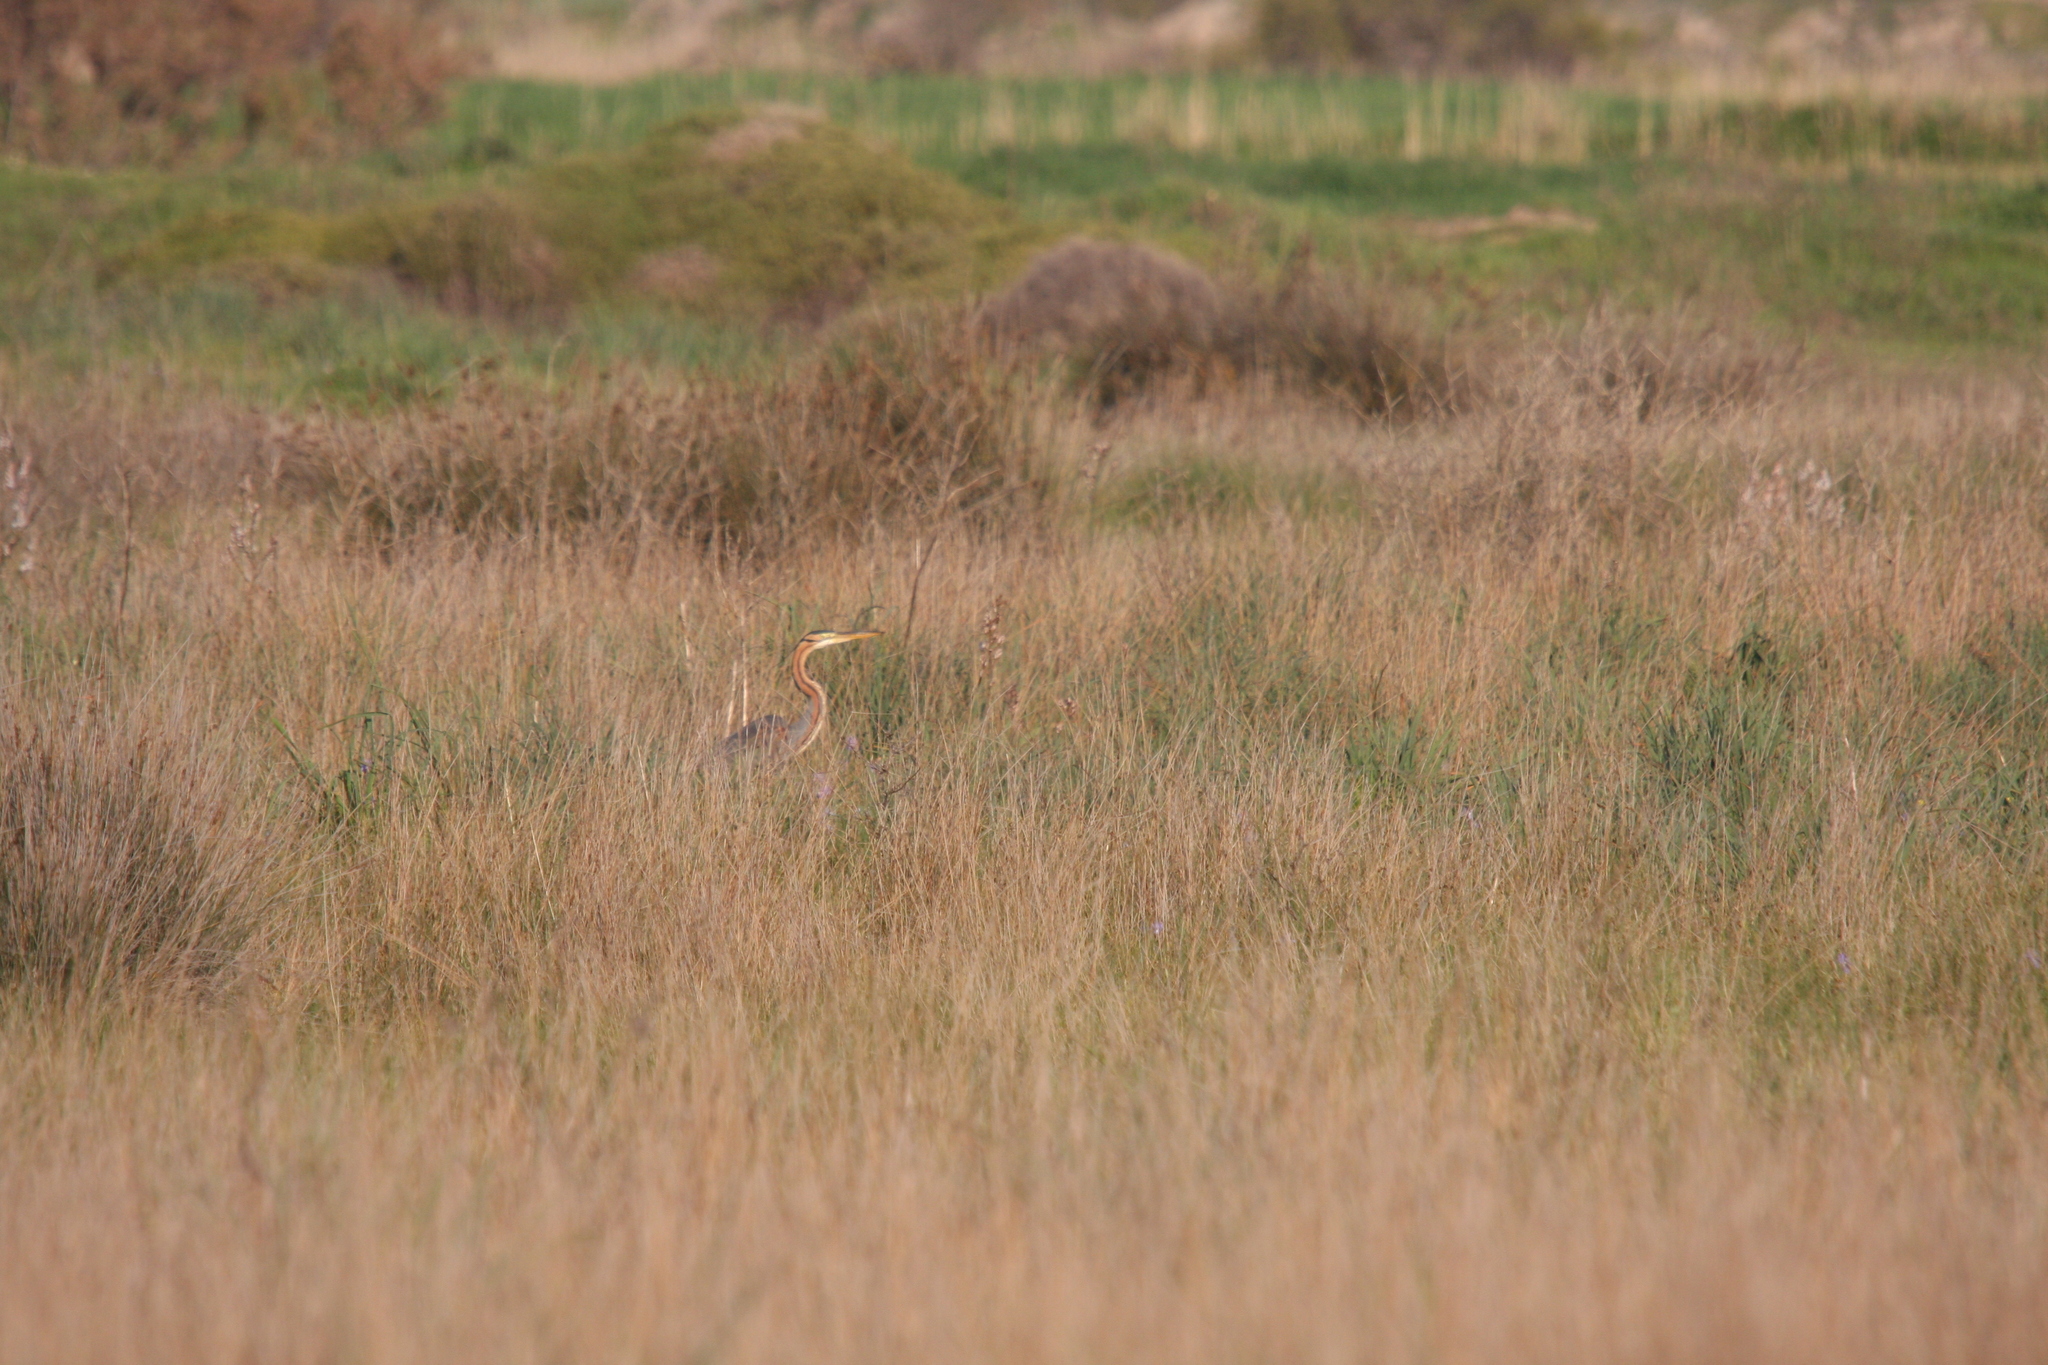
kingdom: Animalia
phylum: Chordata
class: Aves
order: Pelecaniformes
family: Ardeidae
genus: Ardea
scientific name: Ardea purpurea
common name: Purple heron
